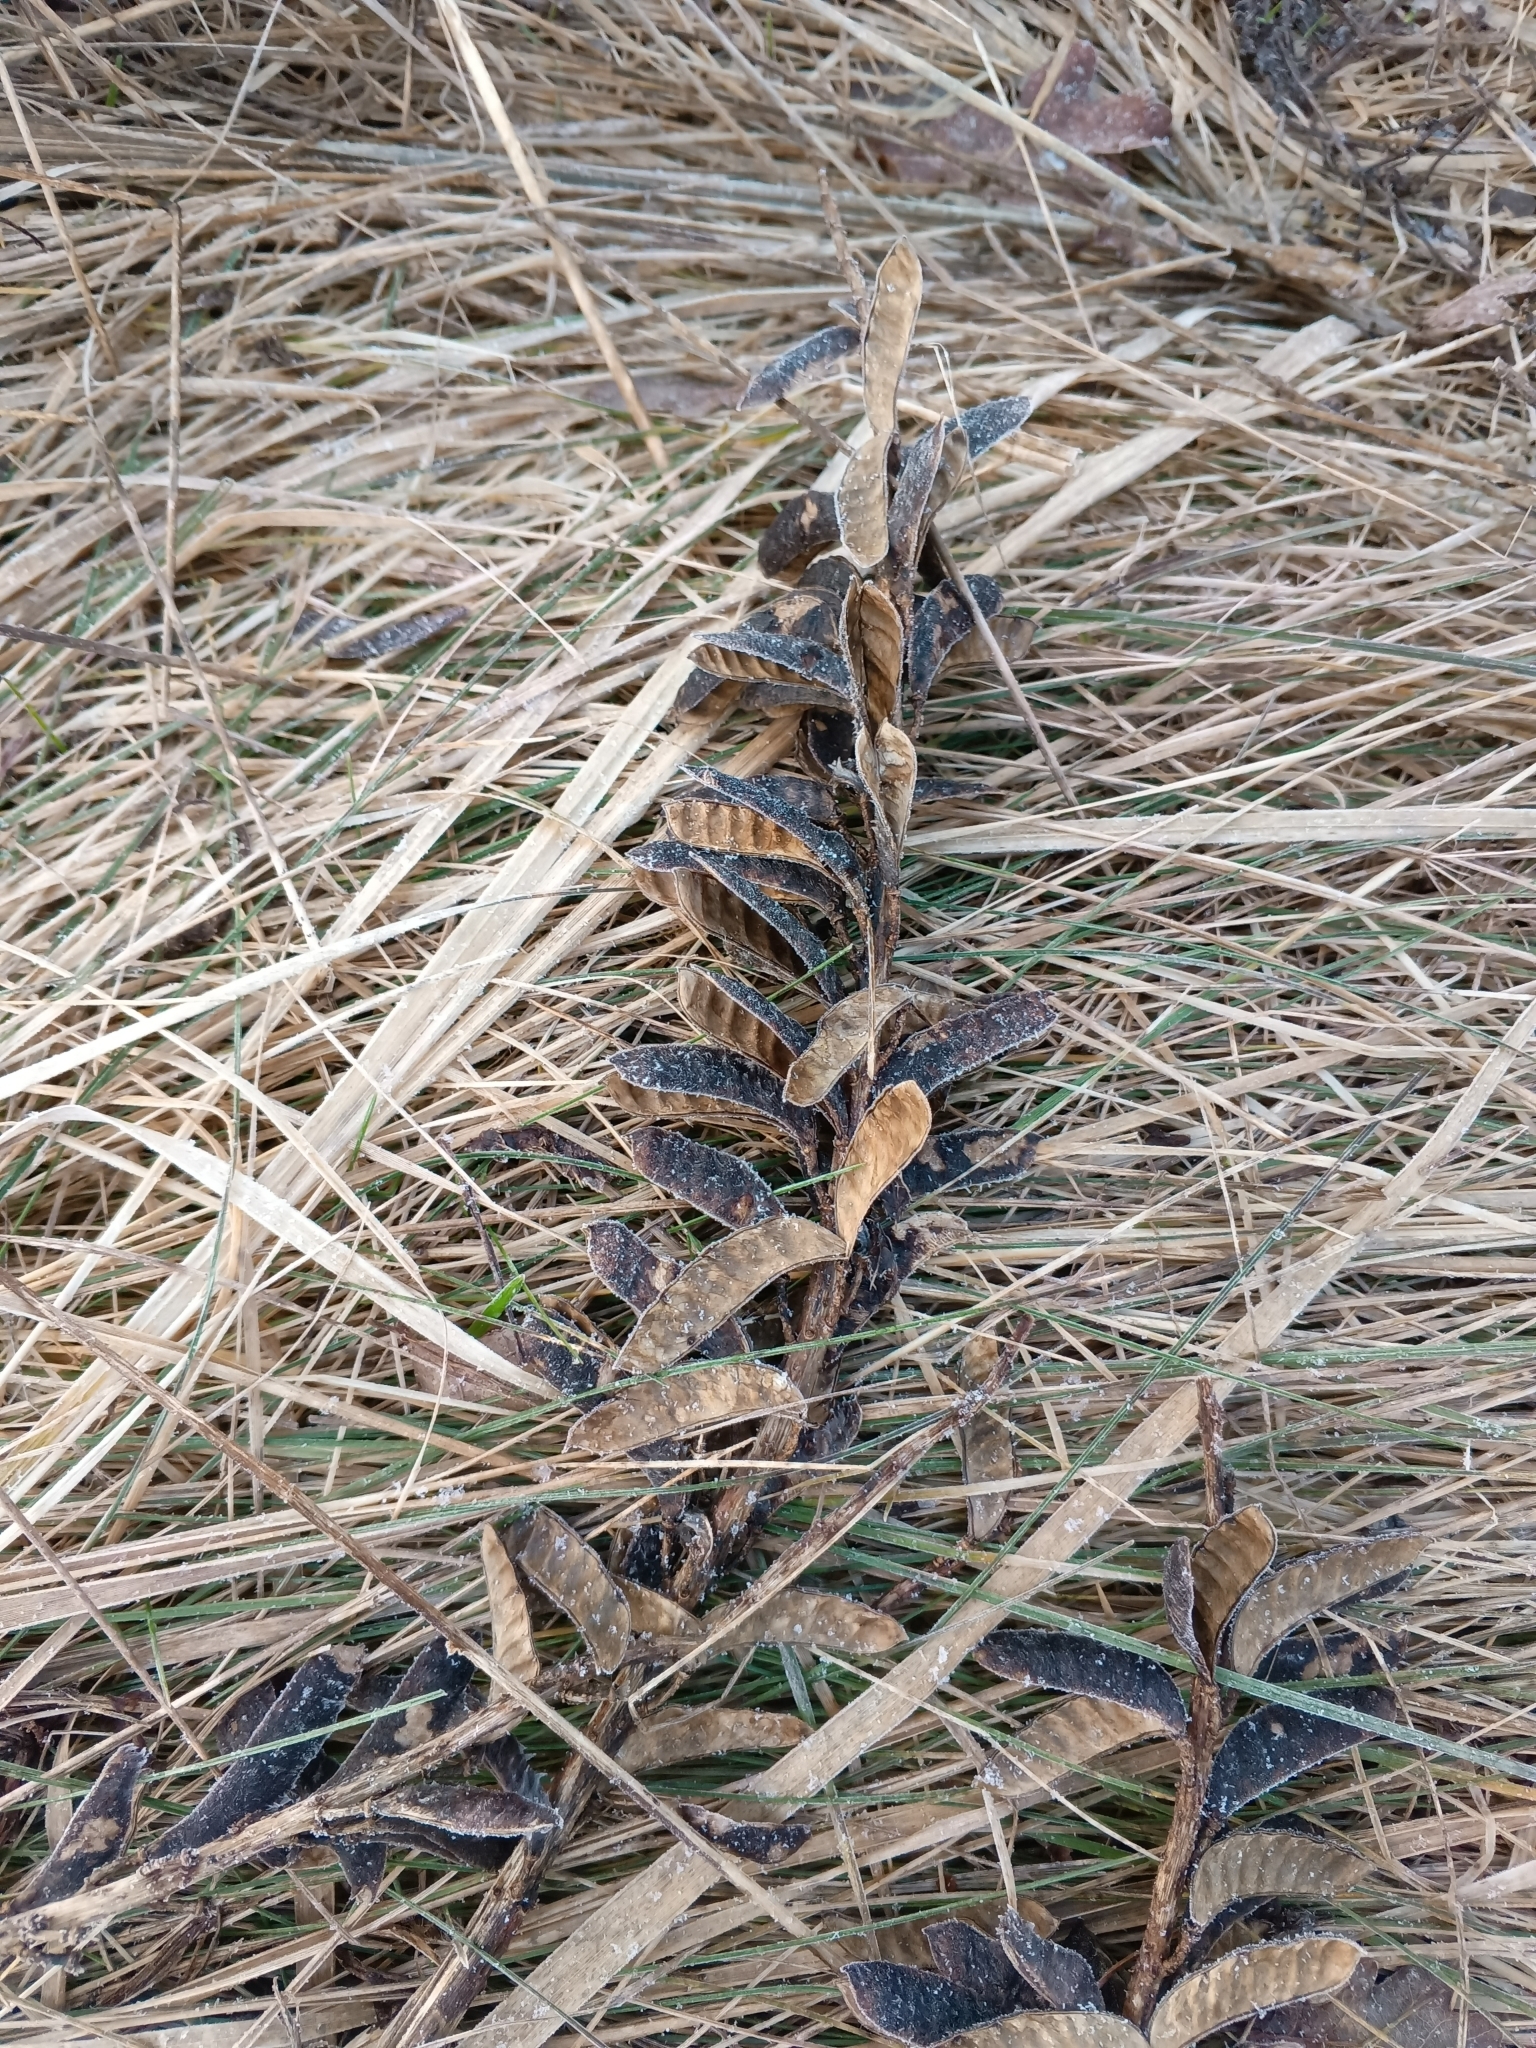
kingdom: Plantae
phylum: Tracheophyta
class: Magnoliopsida
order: Fabales
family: Fabaceae
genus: Lupinus
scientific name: Lupinus polyphyllus
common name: Garden lupin
